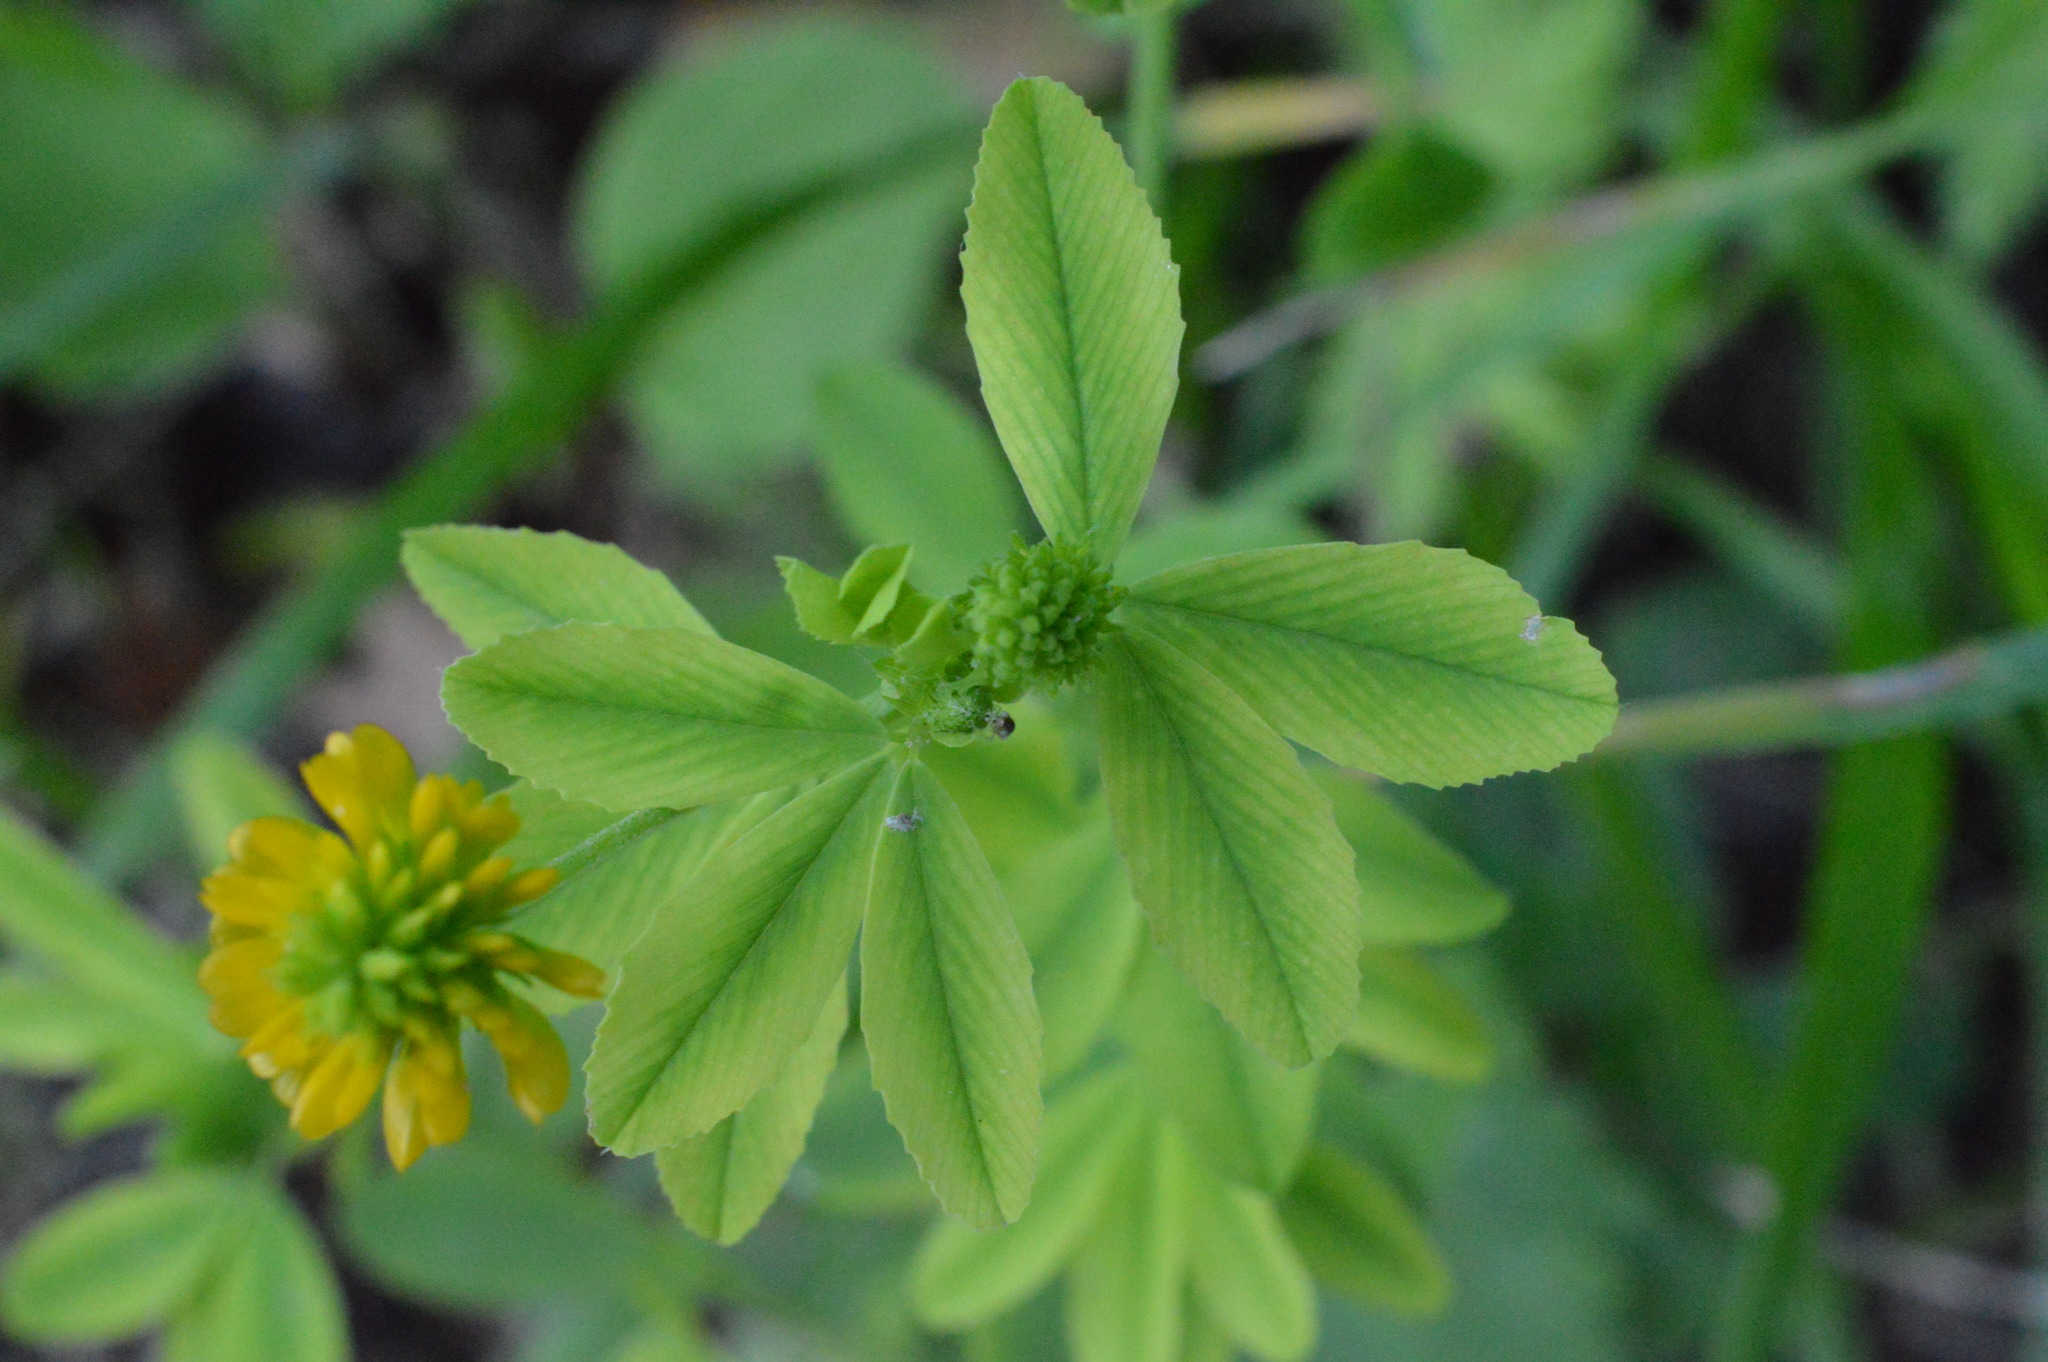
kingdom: Plantae
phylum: Tracheophyta
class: Magnoliopsida
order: Fabales
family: Fabaceae
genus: Trifolium
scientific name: Trifolium aureum
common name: Golden clover
